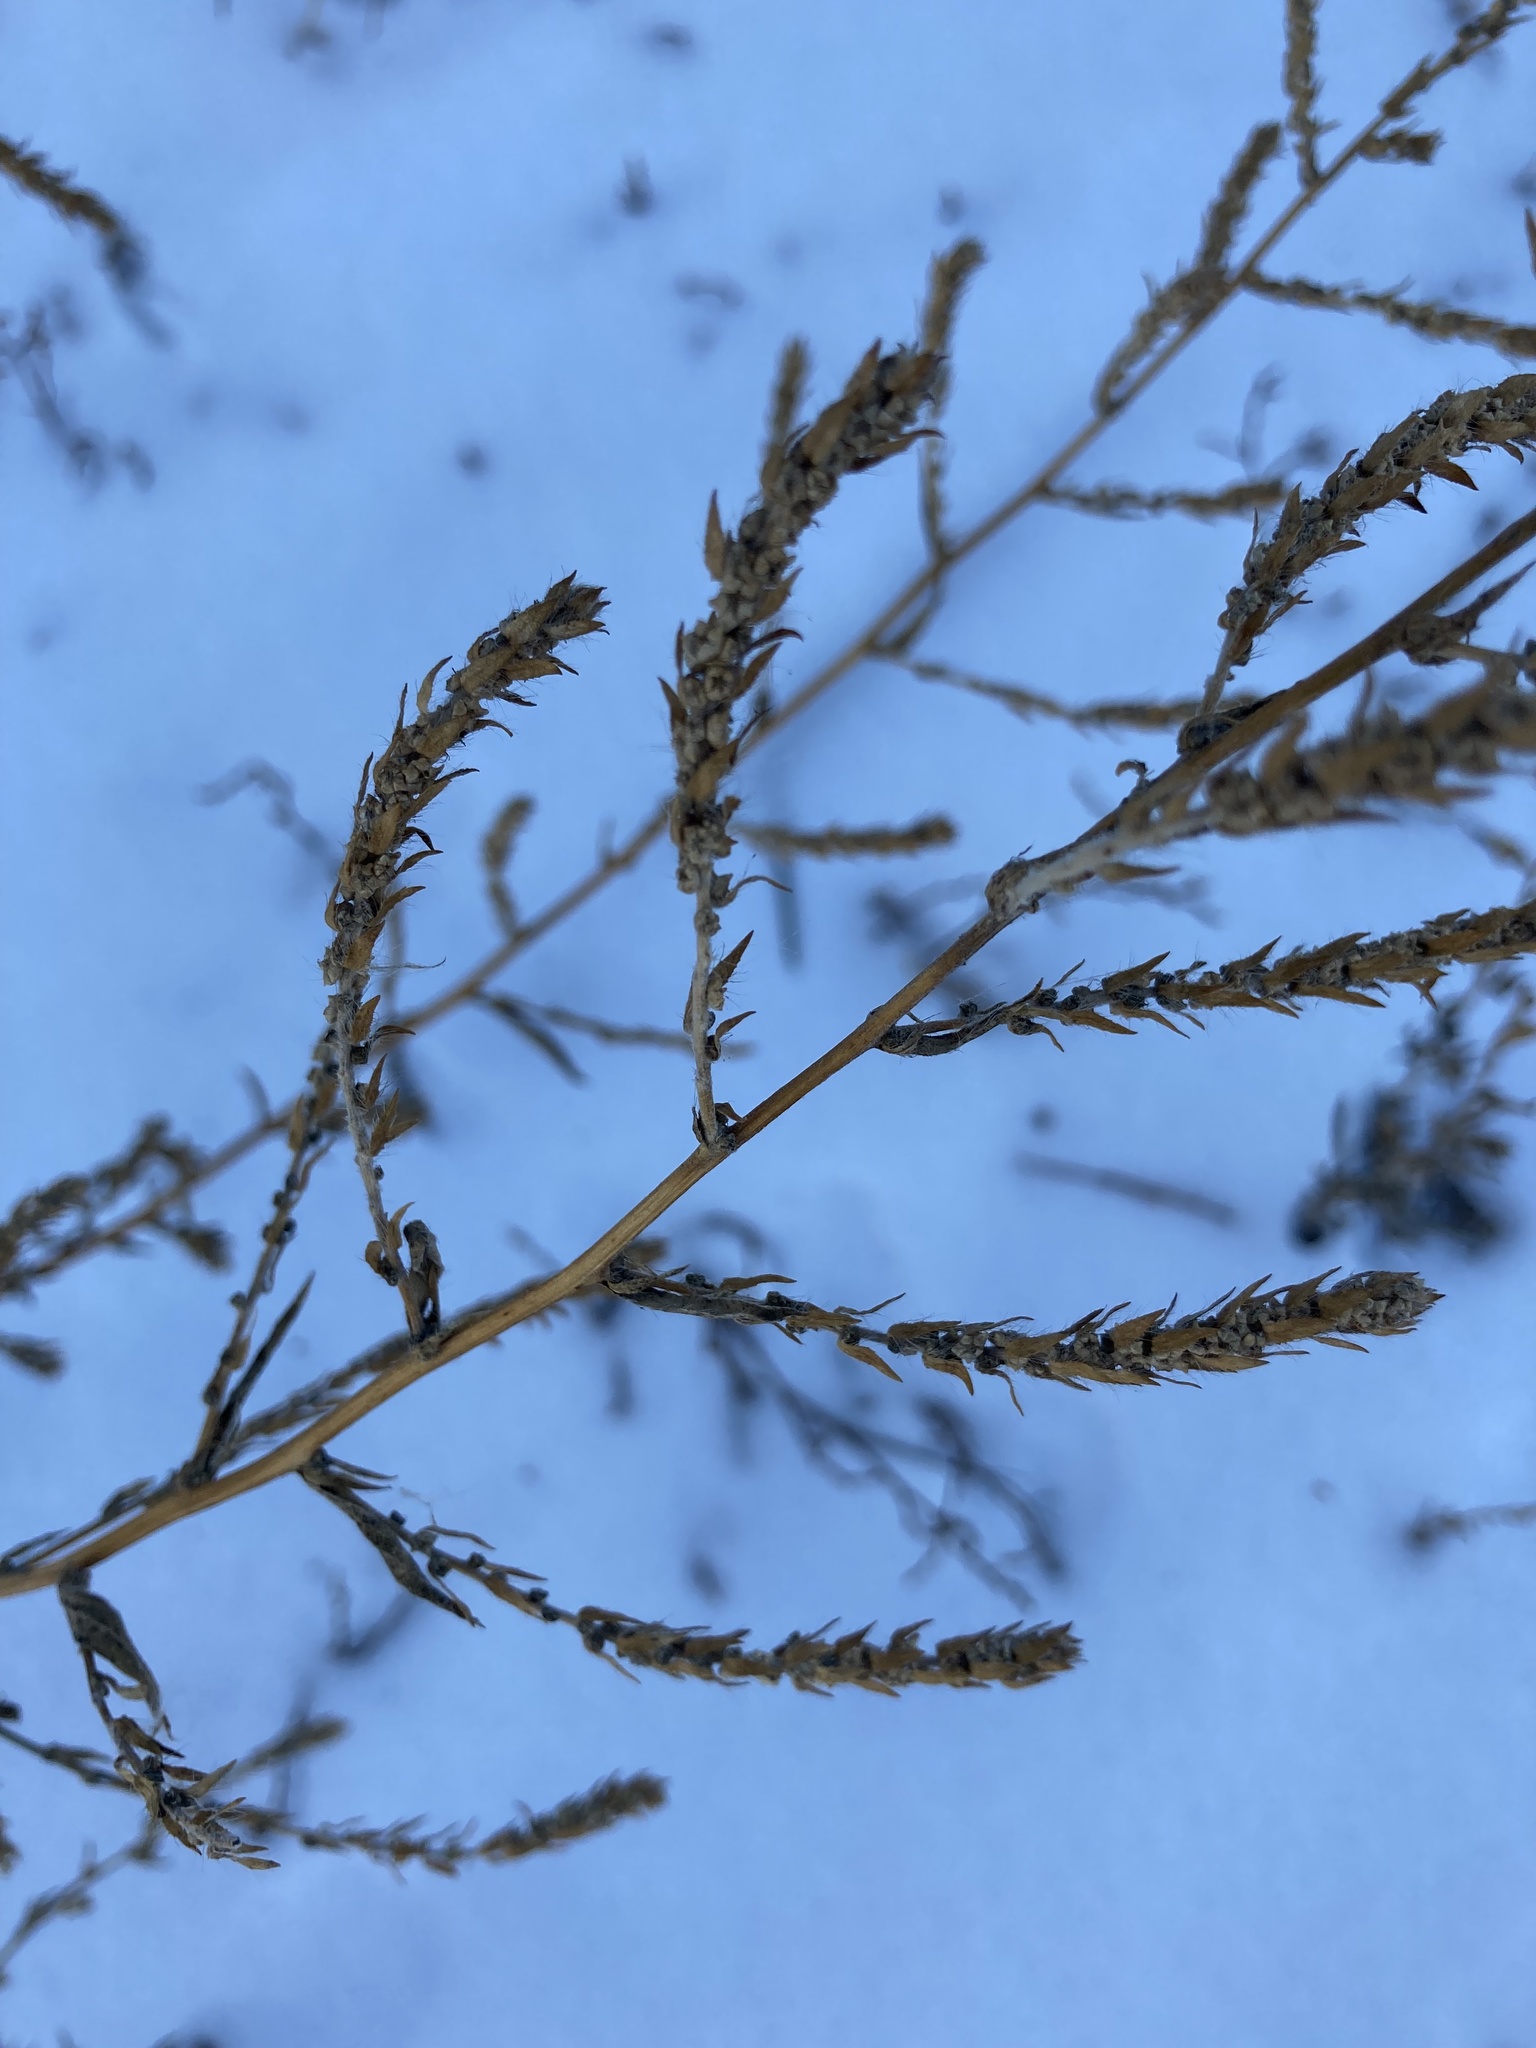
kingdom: Plantae
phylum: Tracheophyta
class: Magnoliopsida
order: Caryophyllales
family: Amaranthaceae
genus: Bassia
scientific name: Bassia scoparia
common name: Belvedere
